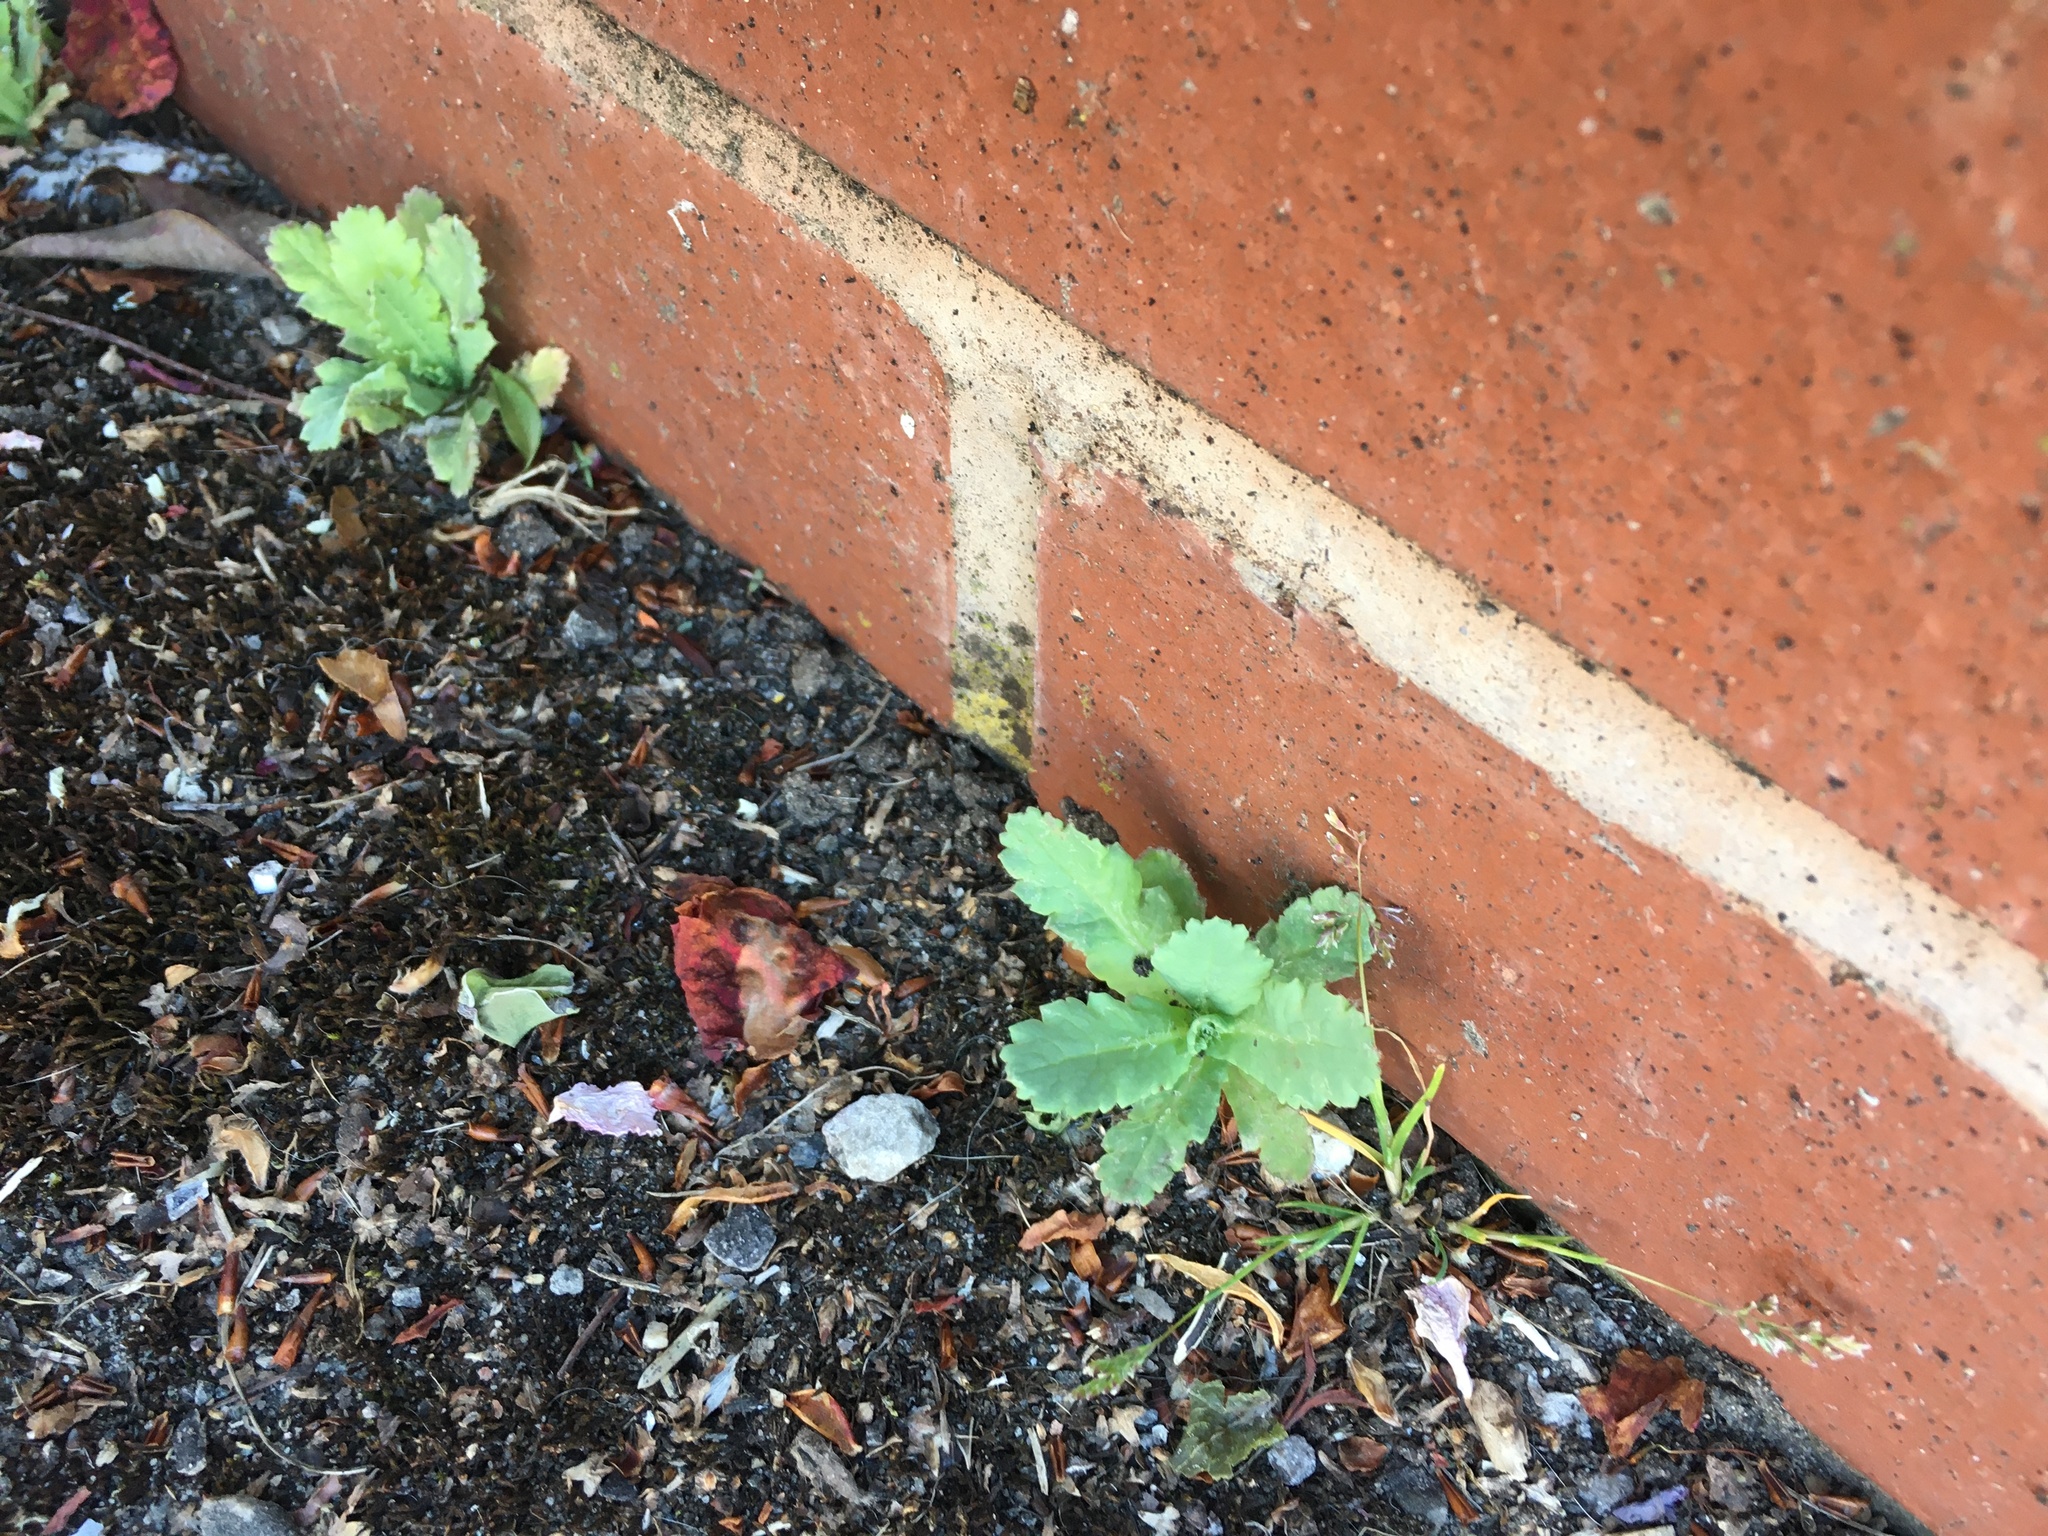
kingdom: Plantae
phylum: Tracheophyta
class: Magnoliopsida
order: Ranunculales
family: Papaveraceae
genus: Papaver
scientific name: Papaver somniferum
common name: Opium poppy
